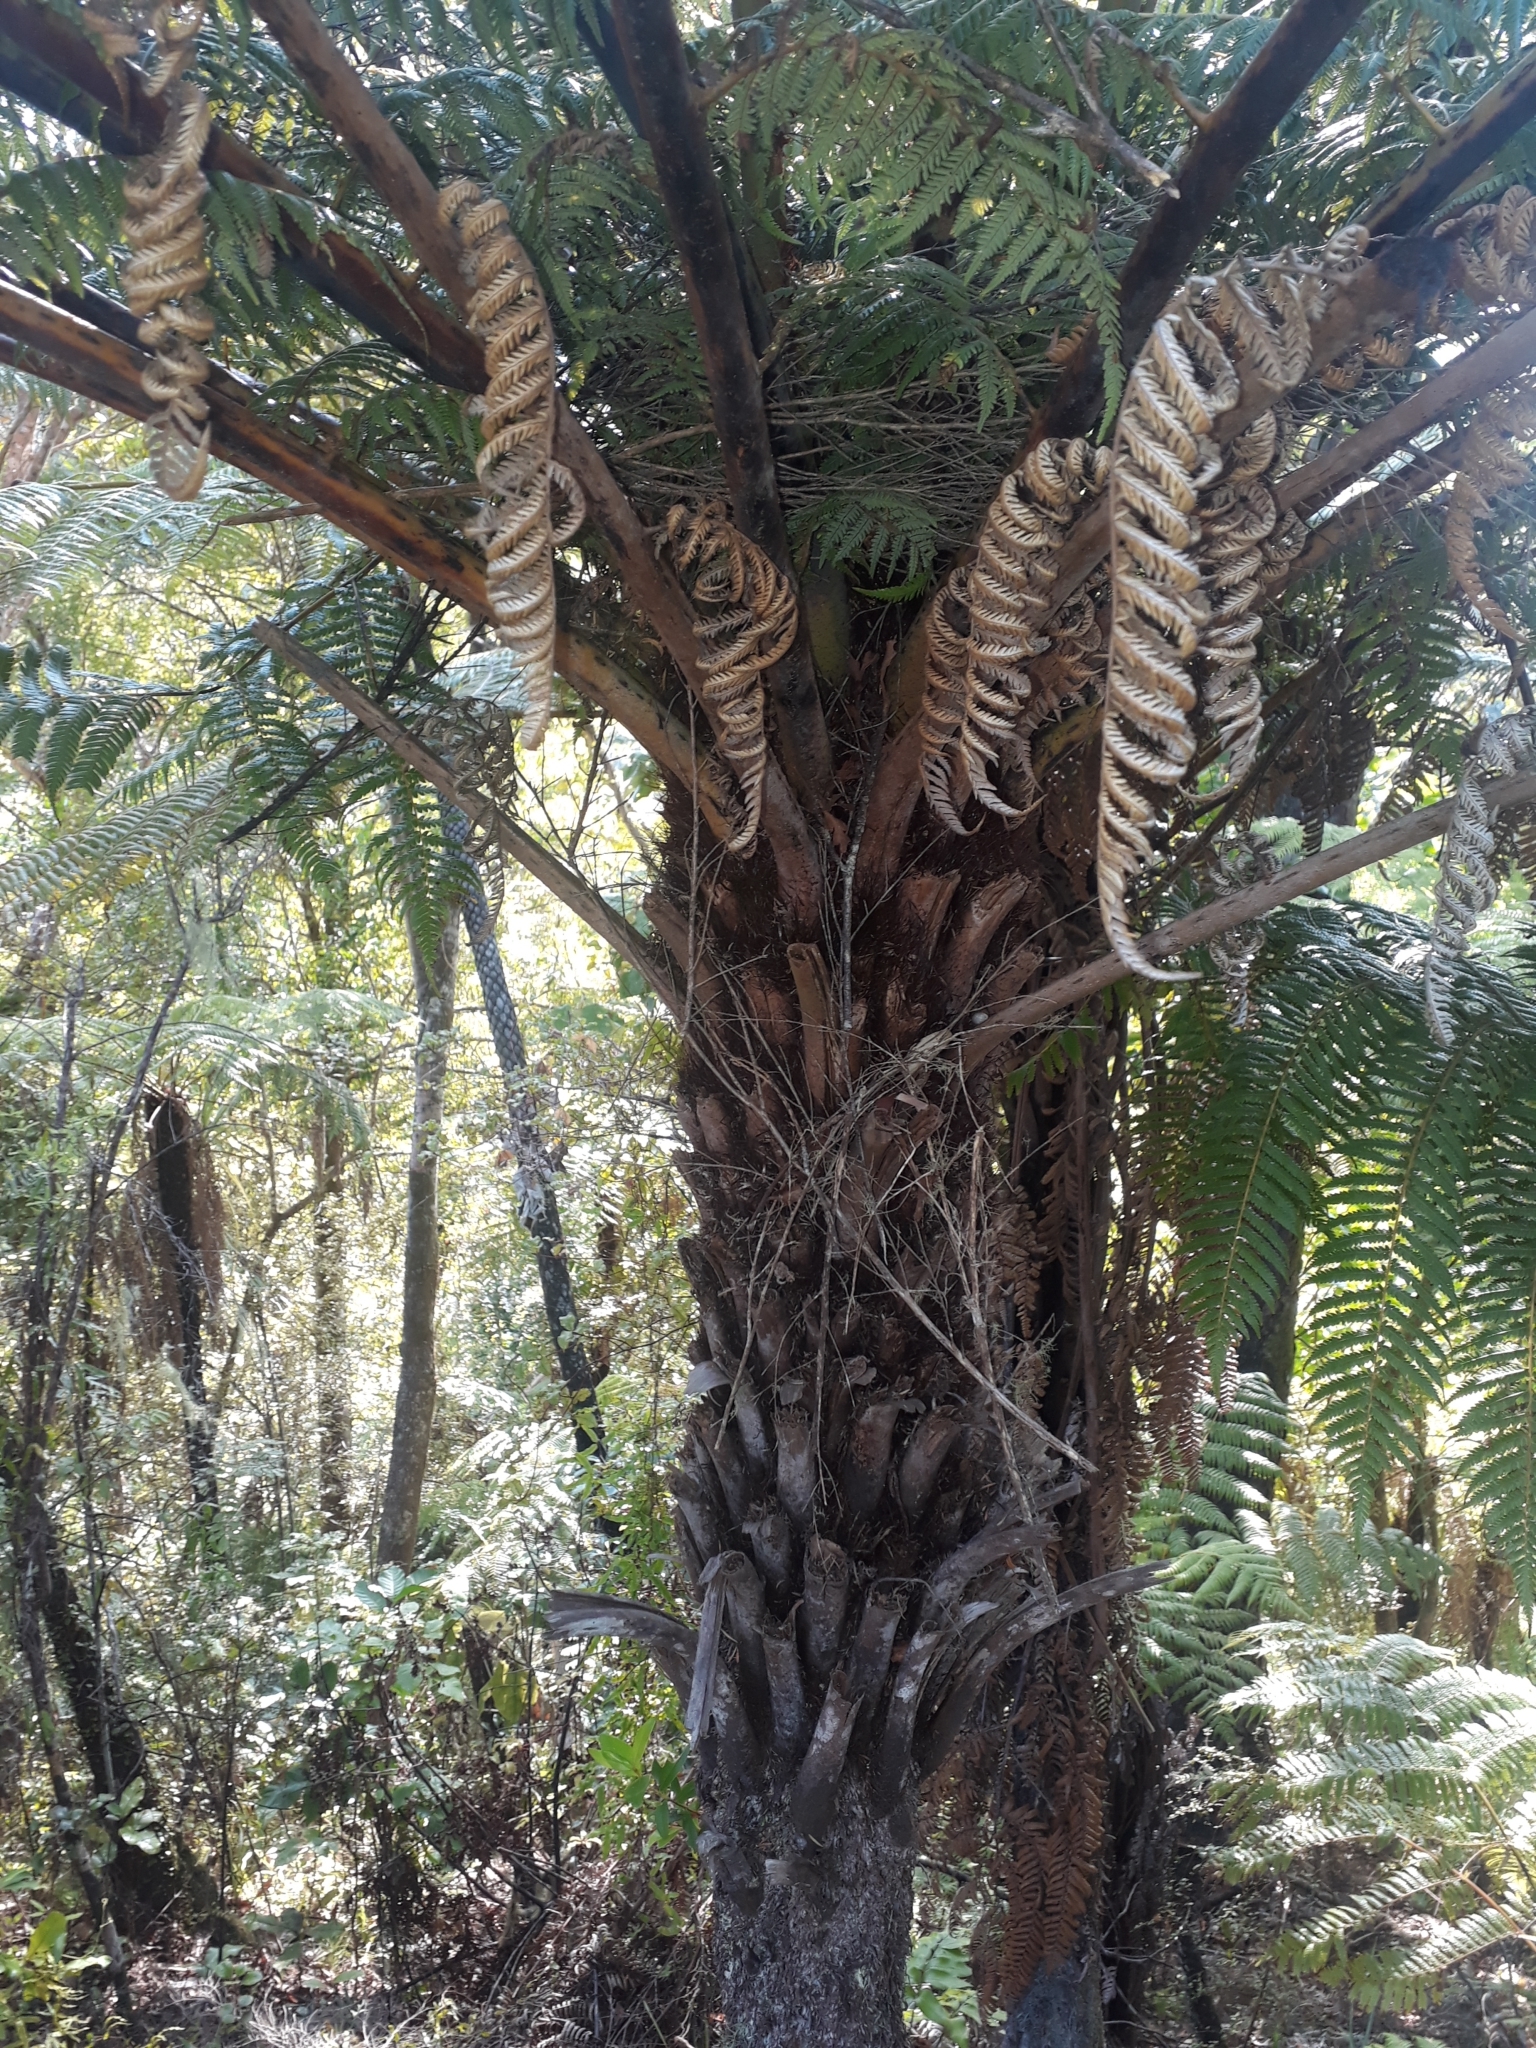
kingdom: Plantae
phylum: Tracheophyta
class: Polypodiopsida
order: Cyatheales
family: Cyatheaceae
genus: Alsophila
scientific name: Alsophila dealbata
